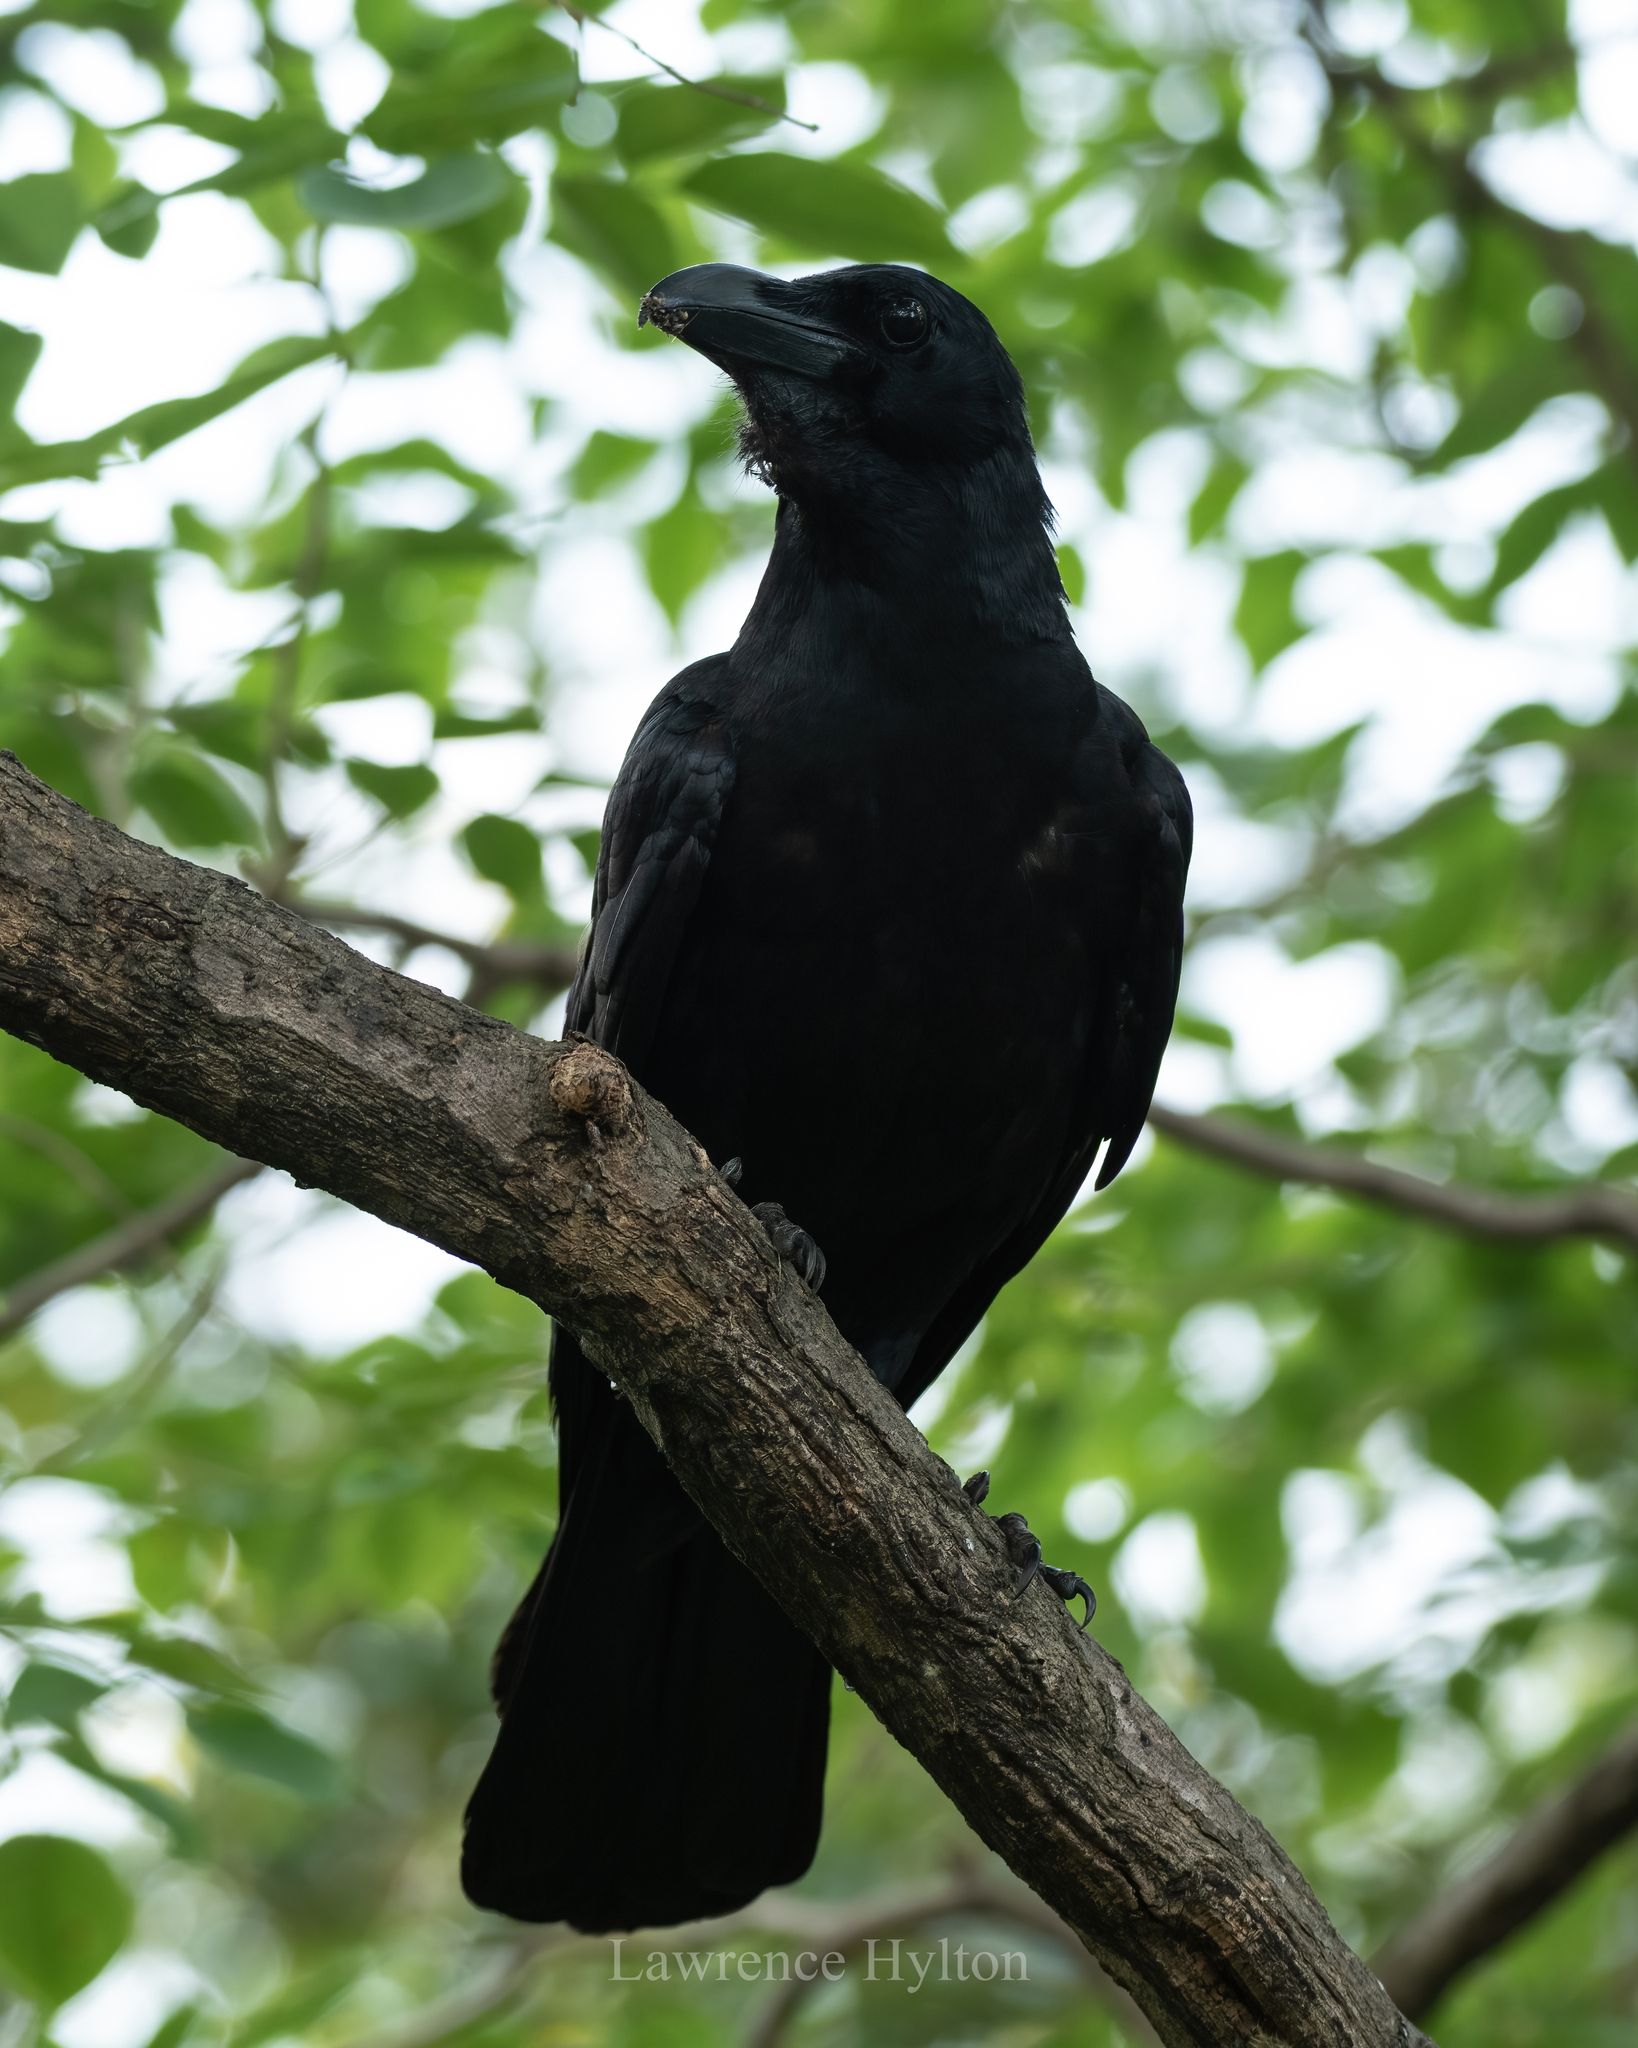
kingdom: Animalia
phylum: Chordata
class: Aves
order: Passeriformes
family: Corvidae
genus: Corvus
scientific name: Corvus macrorhynchos
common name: Large-billed crow
